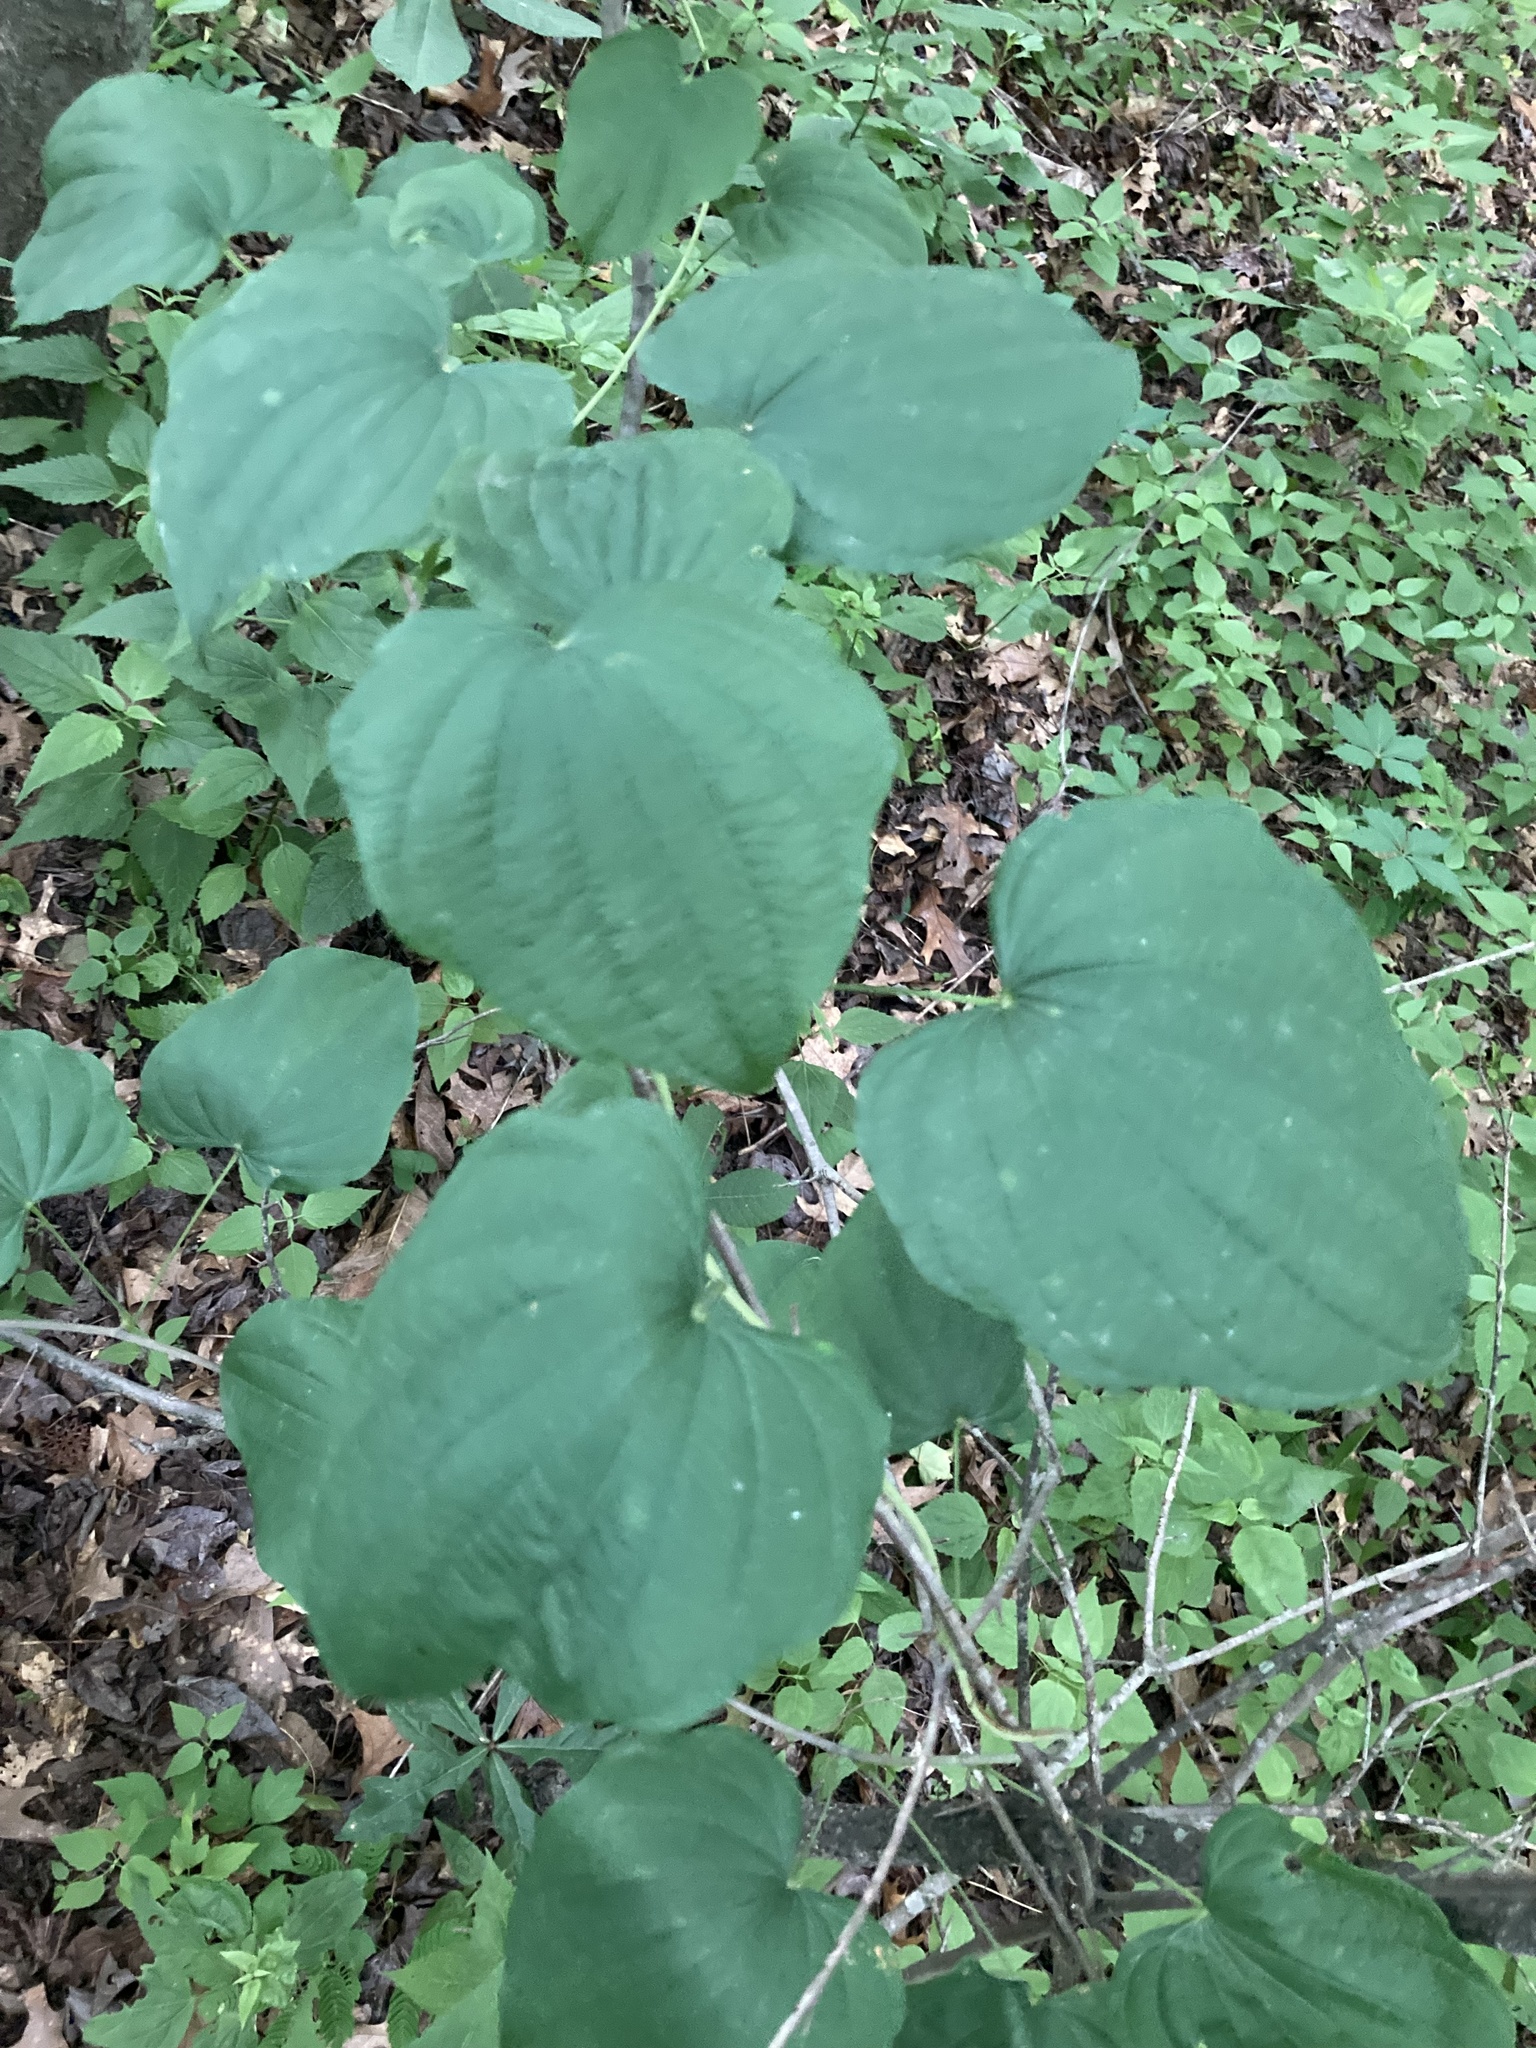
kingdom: Plantae
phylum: Tracheophyta
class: Liliopsida
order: Dioscoreales
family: Dioscoreaceae
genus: Dioscorea
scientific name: Dioscorea villosa
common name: Wild yam
